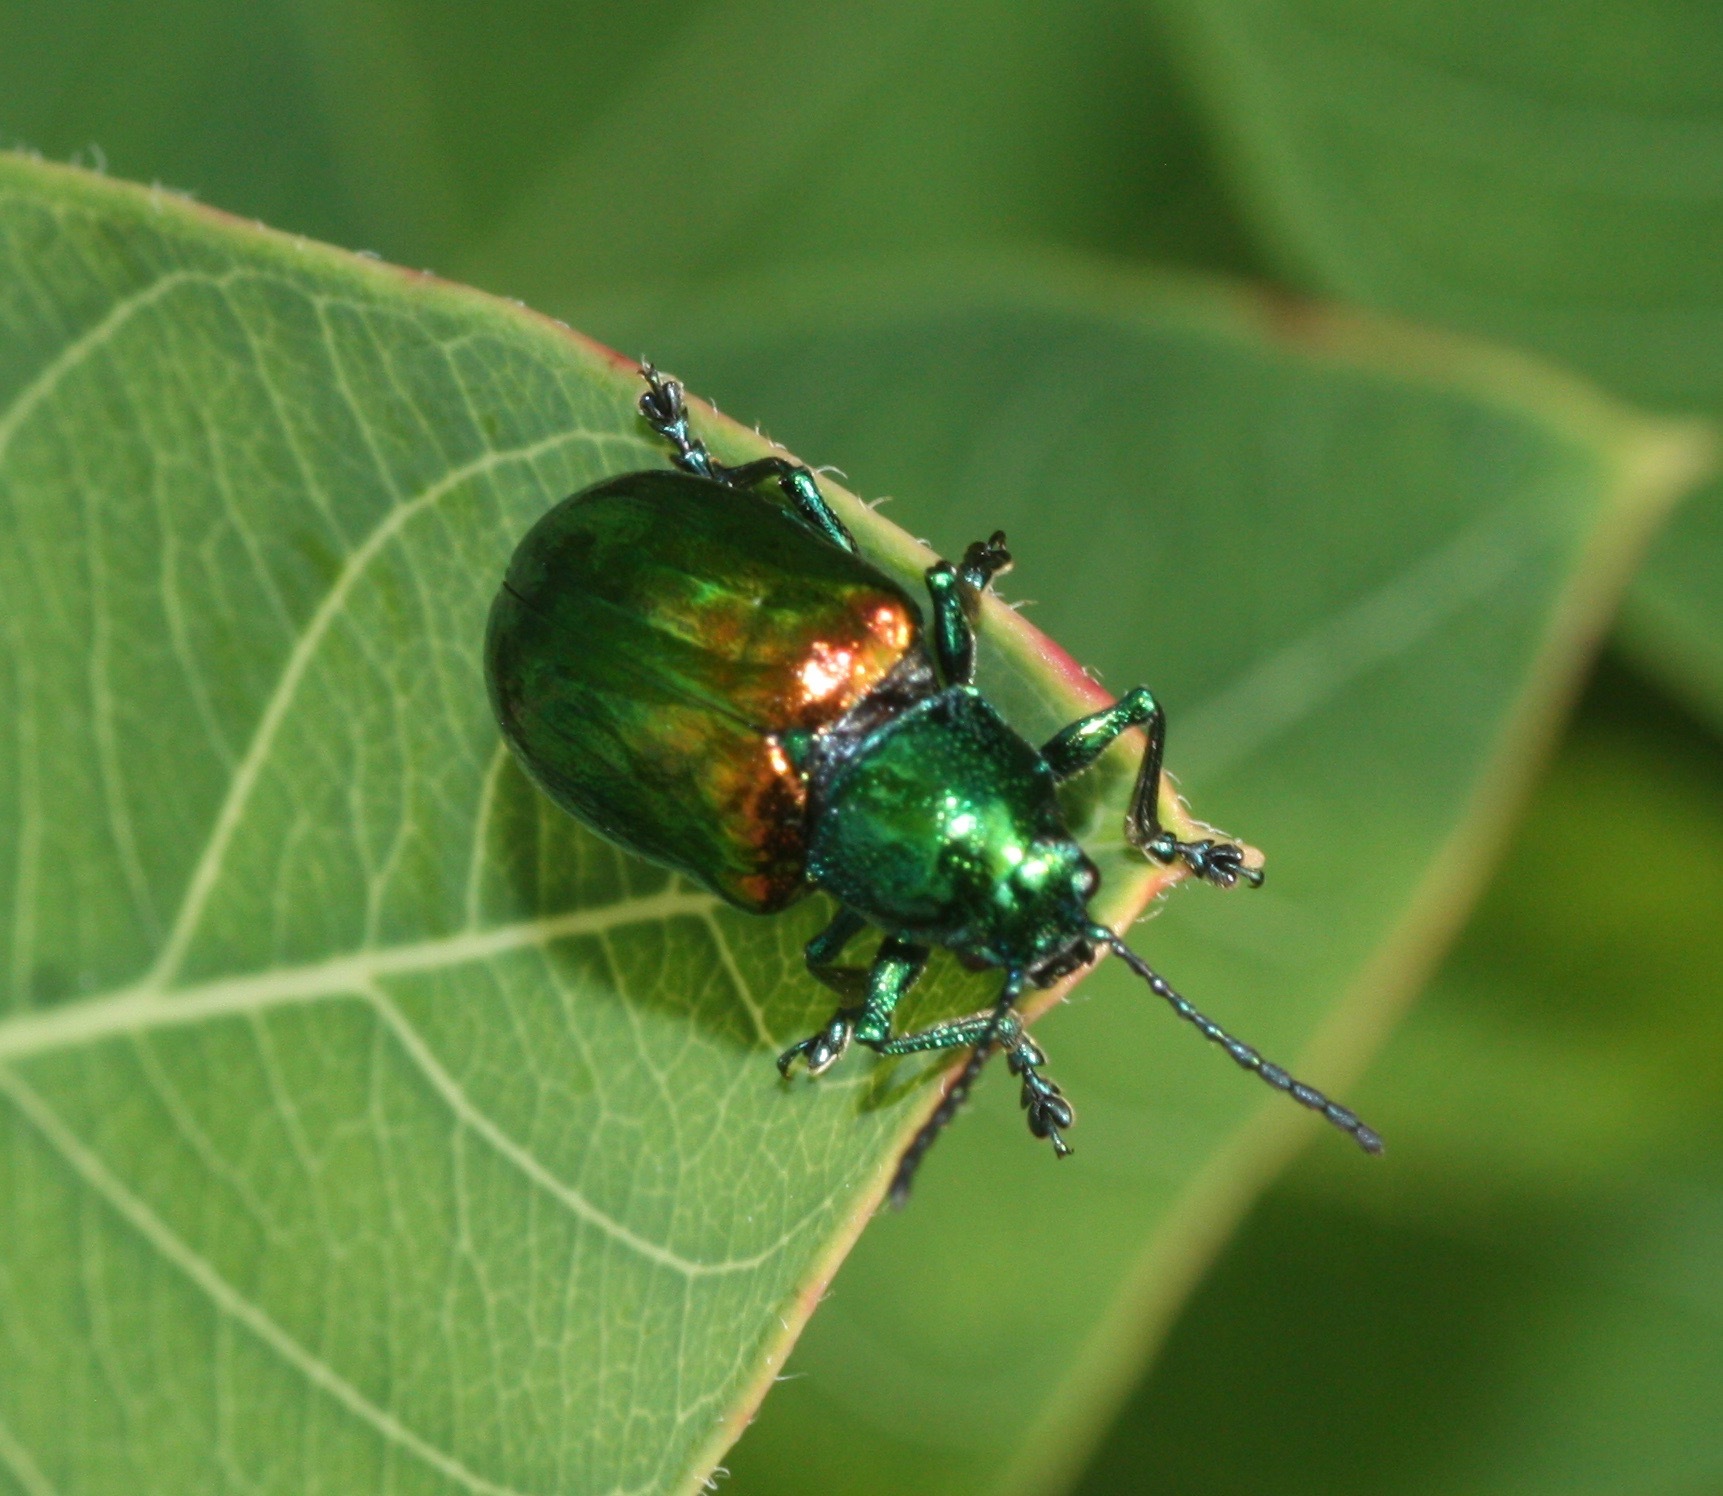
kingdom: Animalia
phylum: Arthropoda
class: Insecta
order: Coleoptera
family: Chrysomelidae
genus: Chrysochus
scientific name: Chrysochus auratus
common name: Dogbane leaf beetle
